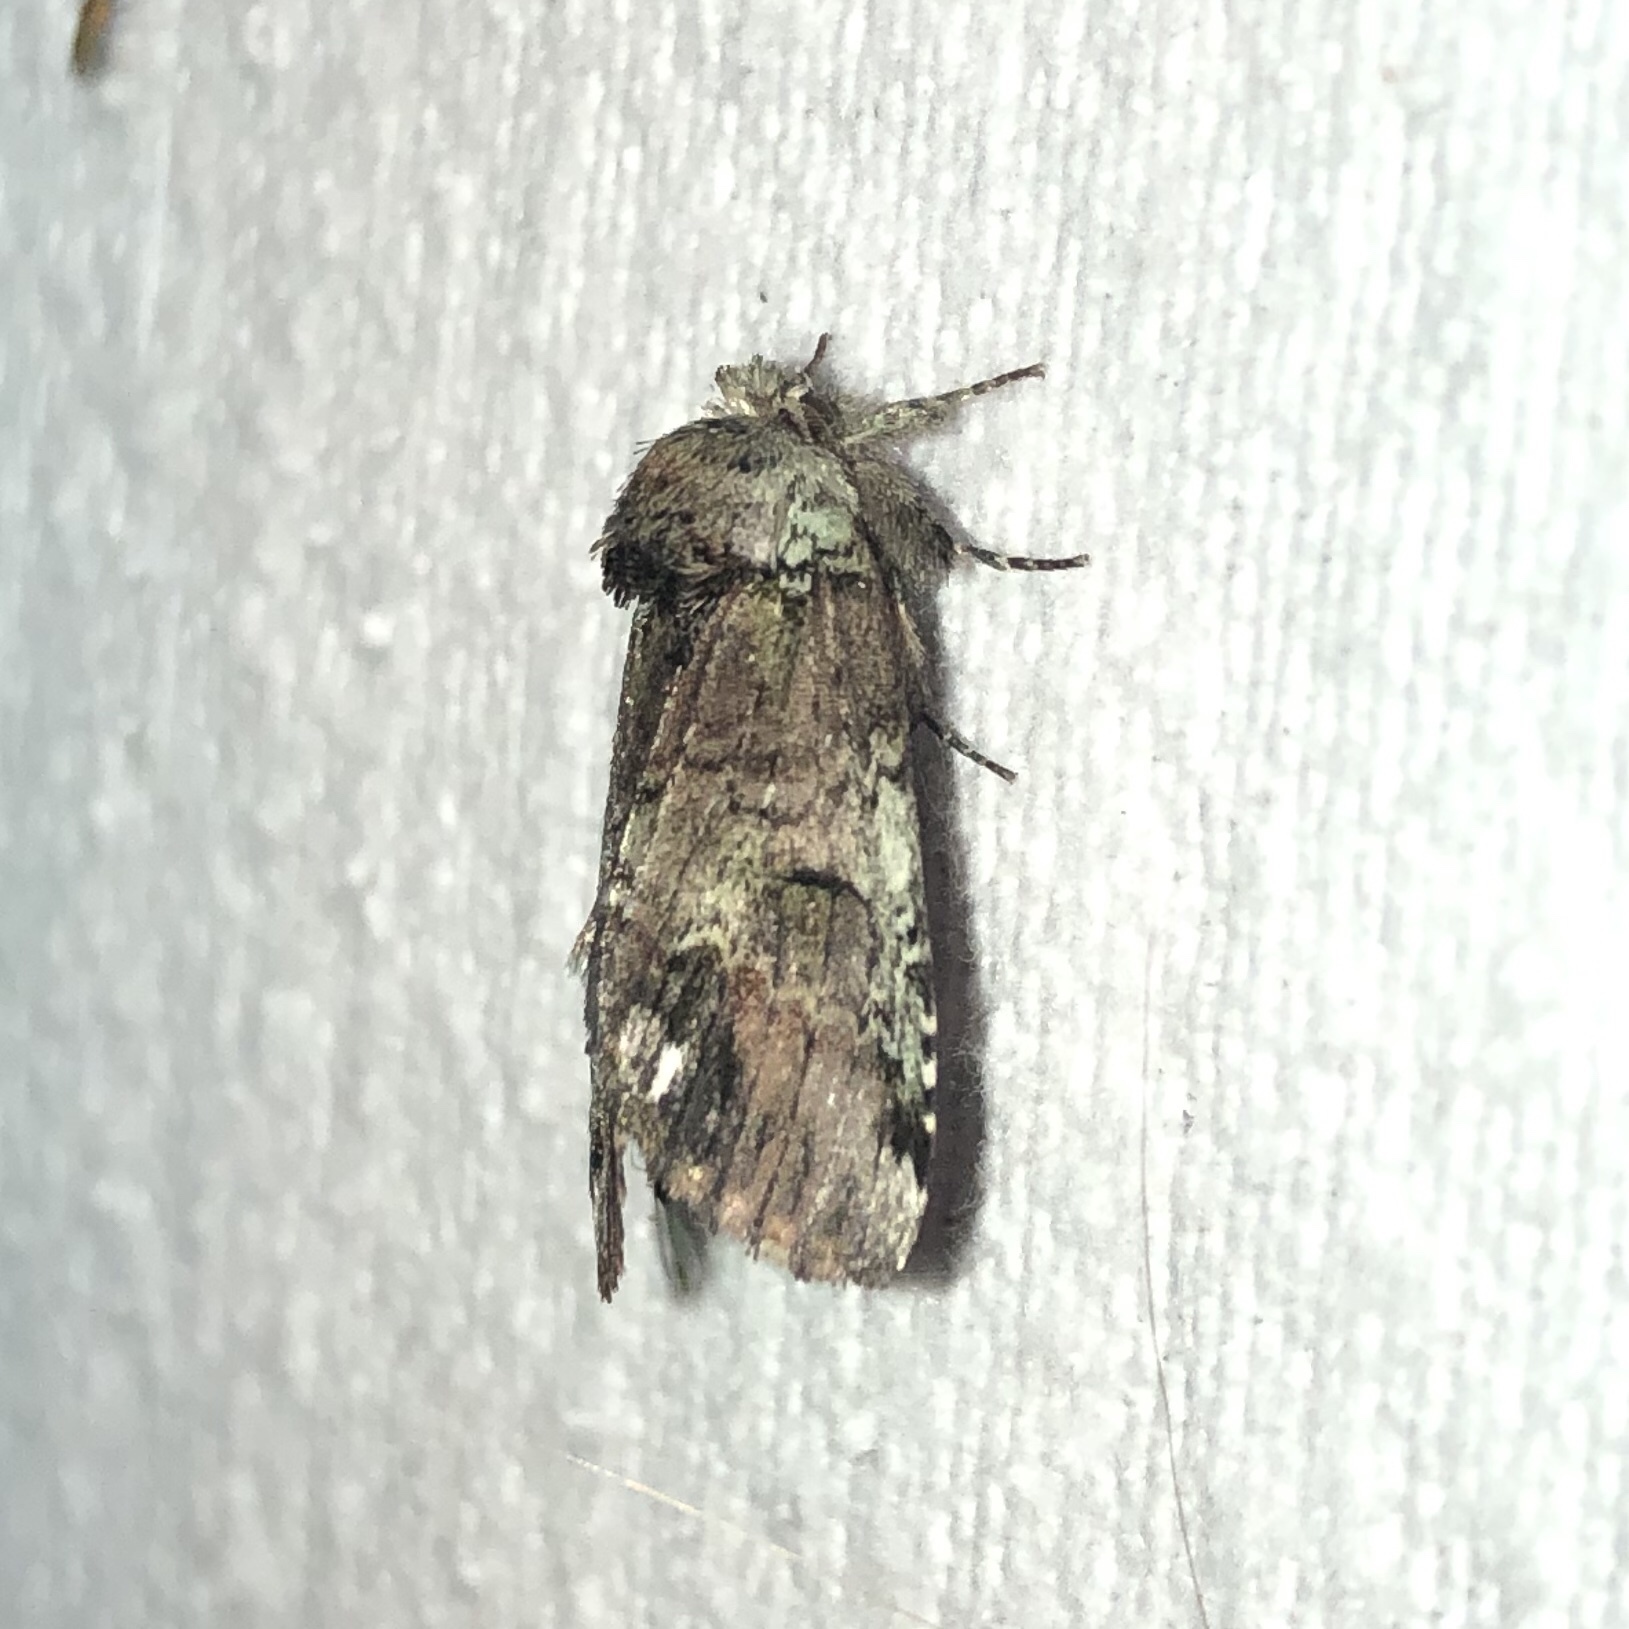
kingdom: Animalia
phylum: Arthropoda
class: Insecta
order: Lepidoptera
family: Notodontidae
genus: Schizura
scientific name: Schizura
